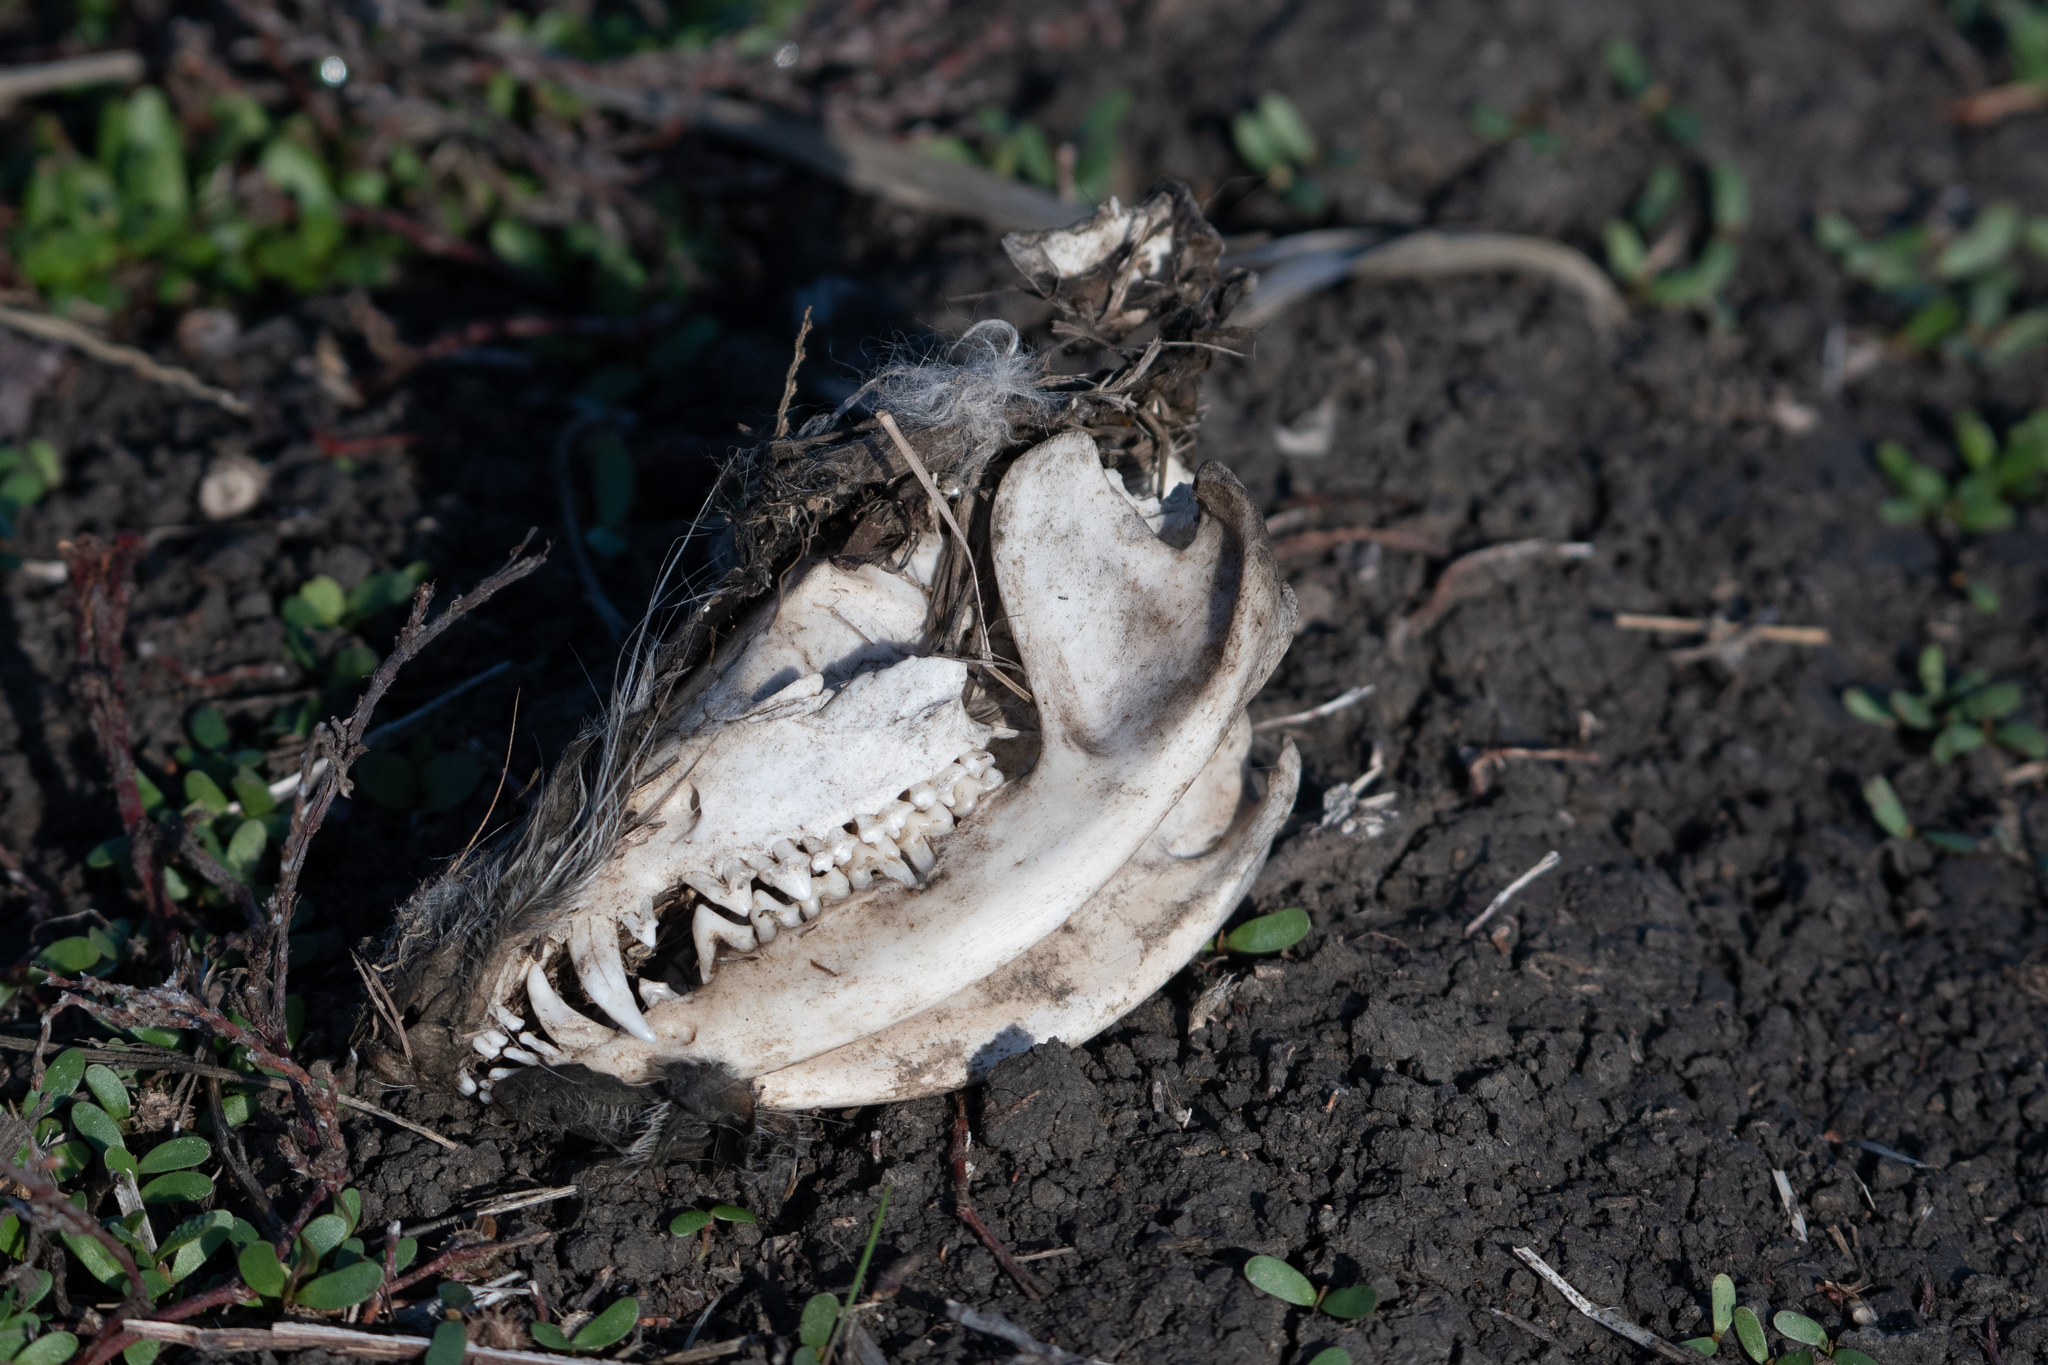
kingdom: Animalia
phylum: Chordata
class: Mammalia
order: Didelphimorphia
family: Didelphidae
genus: Didelphis
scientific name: Didelphis virginiana
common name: Virginia opossum
